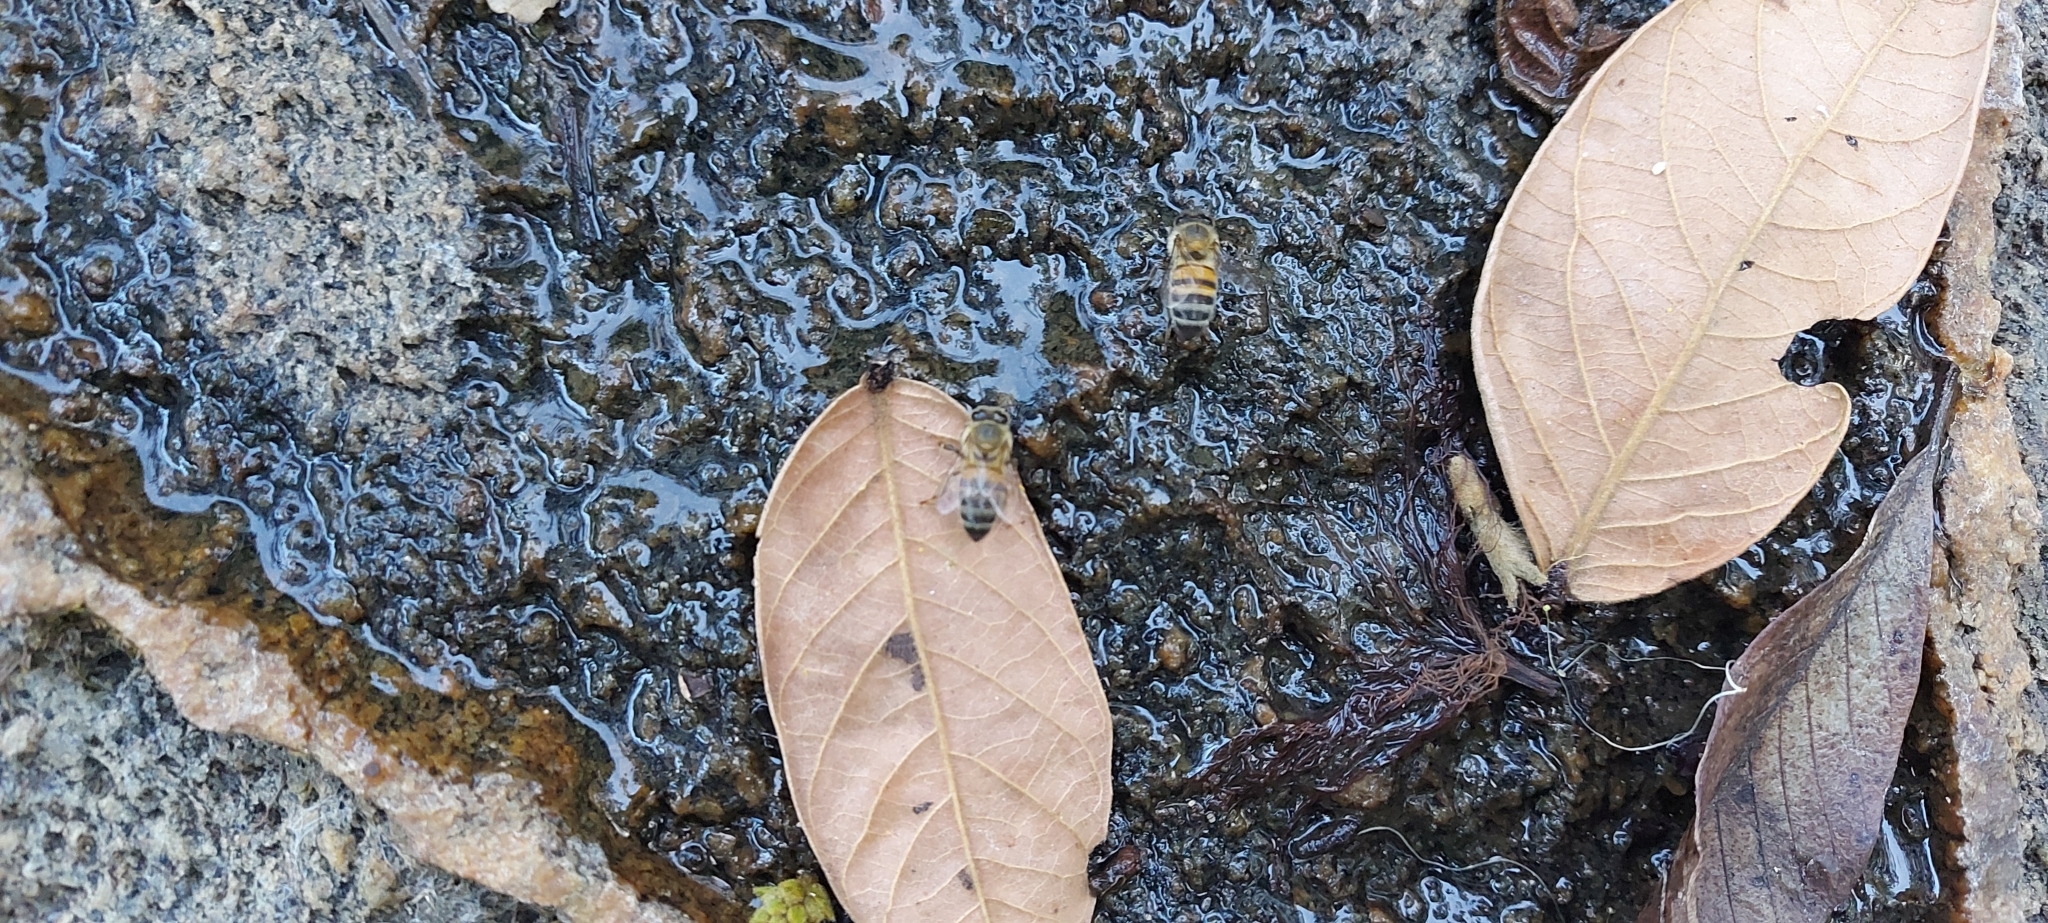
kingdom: Animalia
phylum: Arthropoda
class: Insecta
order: Hymenoptera
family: Apidae
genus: Apis
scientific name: Apis mellifera
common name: Honey bee
